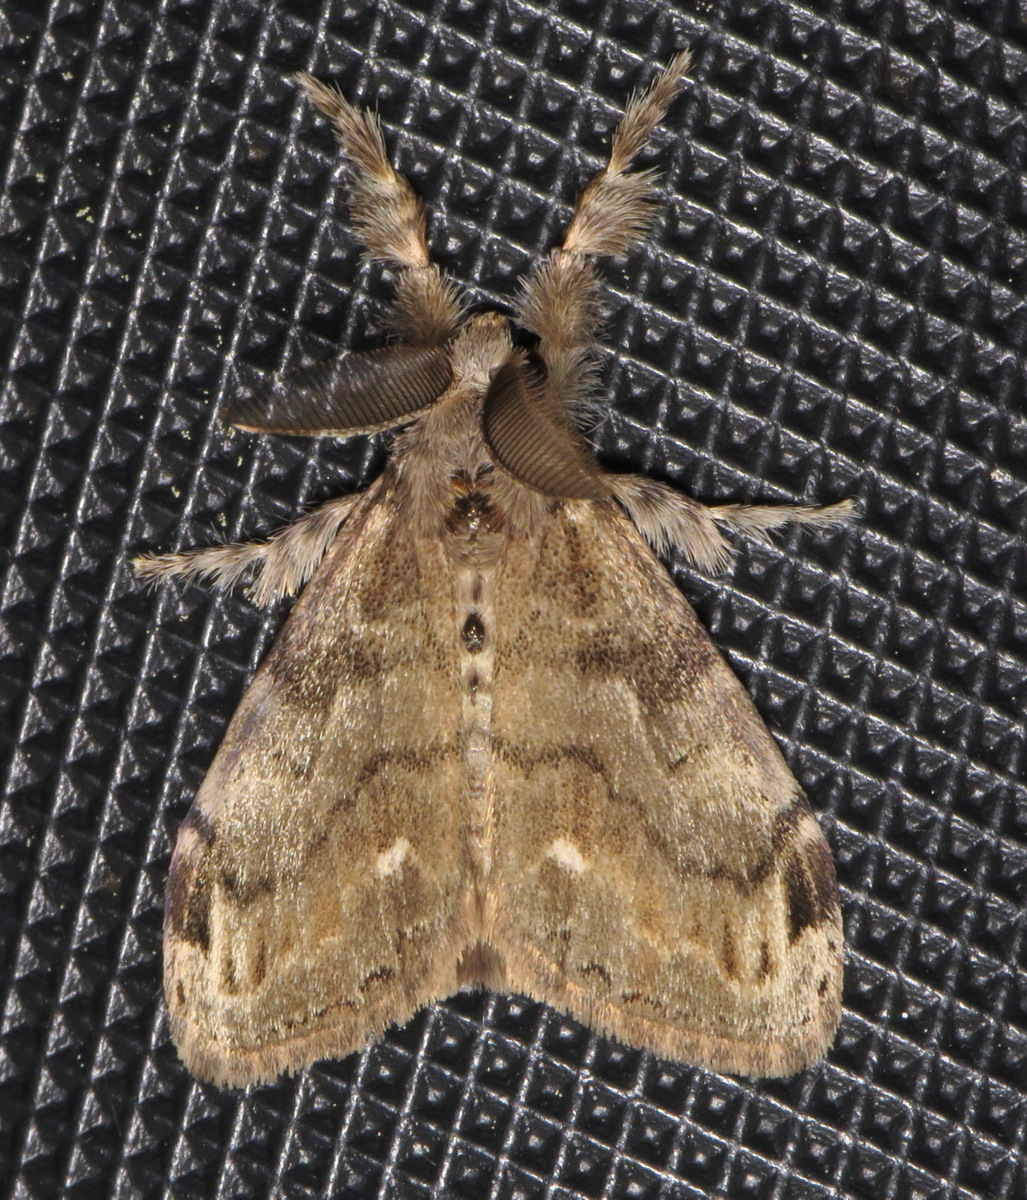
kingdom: Animalia
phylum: Arthropoda
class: Insecta
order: Lepidoptera
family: Erebidae
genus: Orgyia
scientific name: Orgyia leucostigma
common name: White-marked tussock moth
